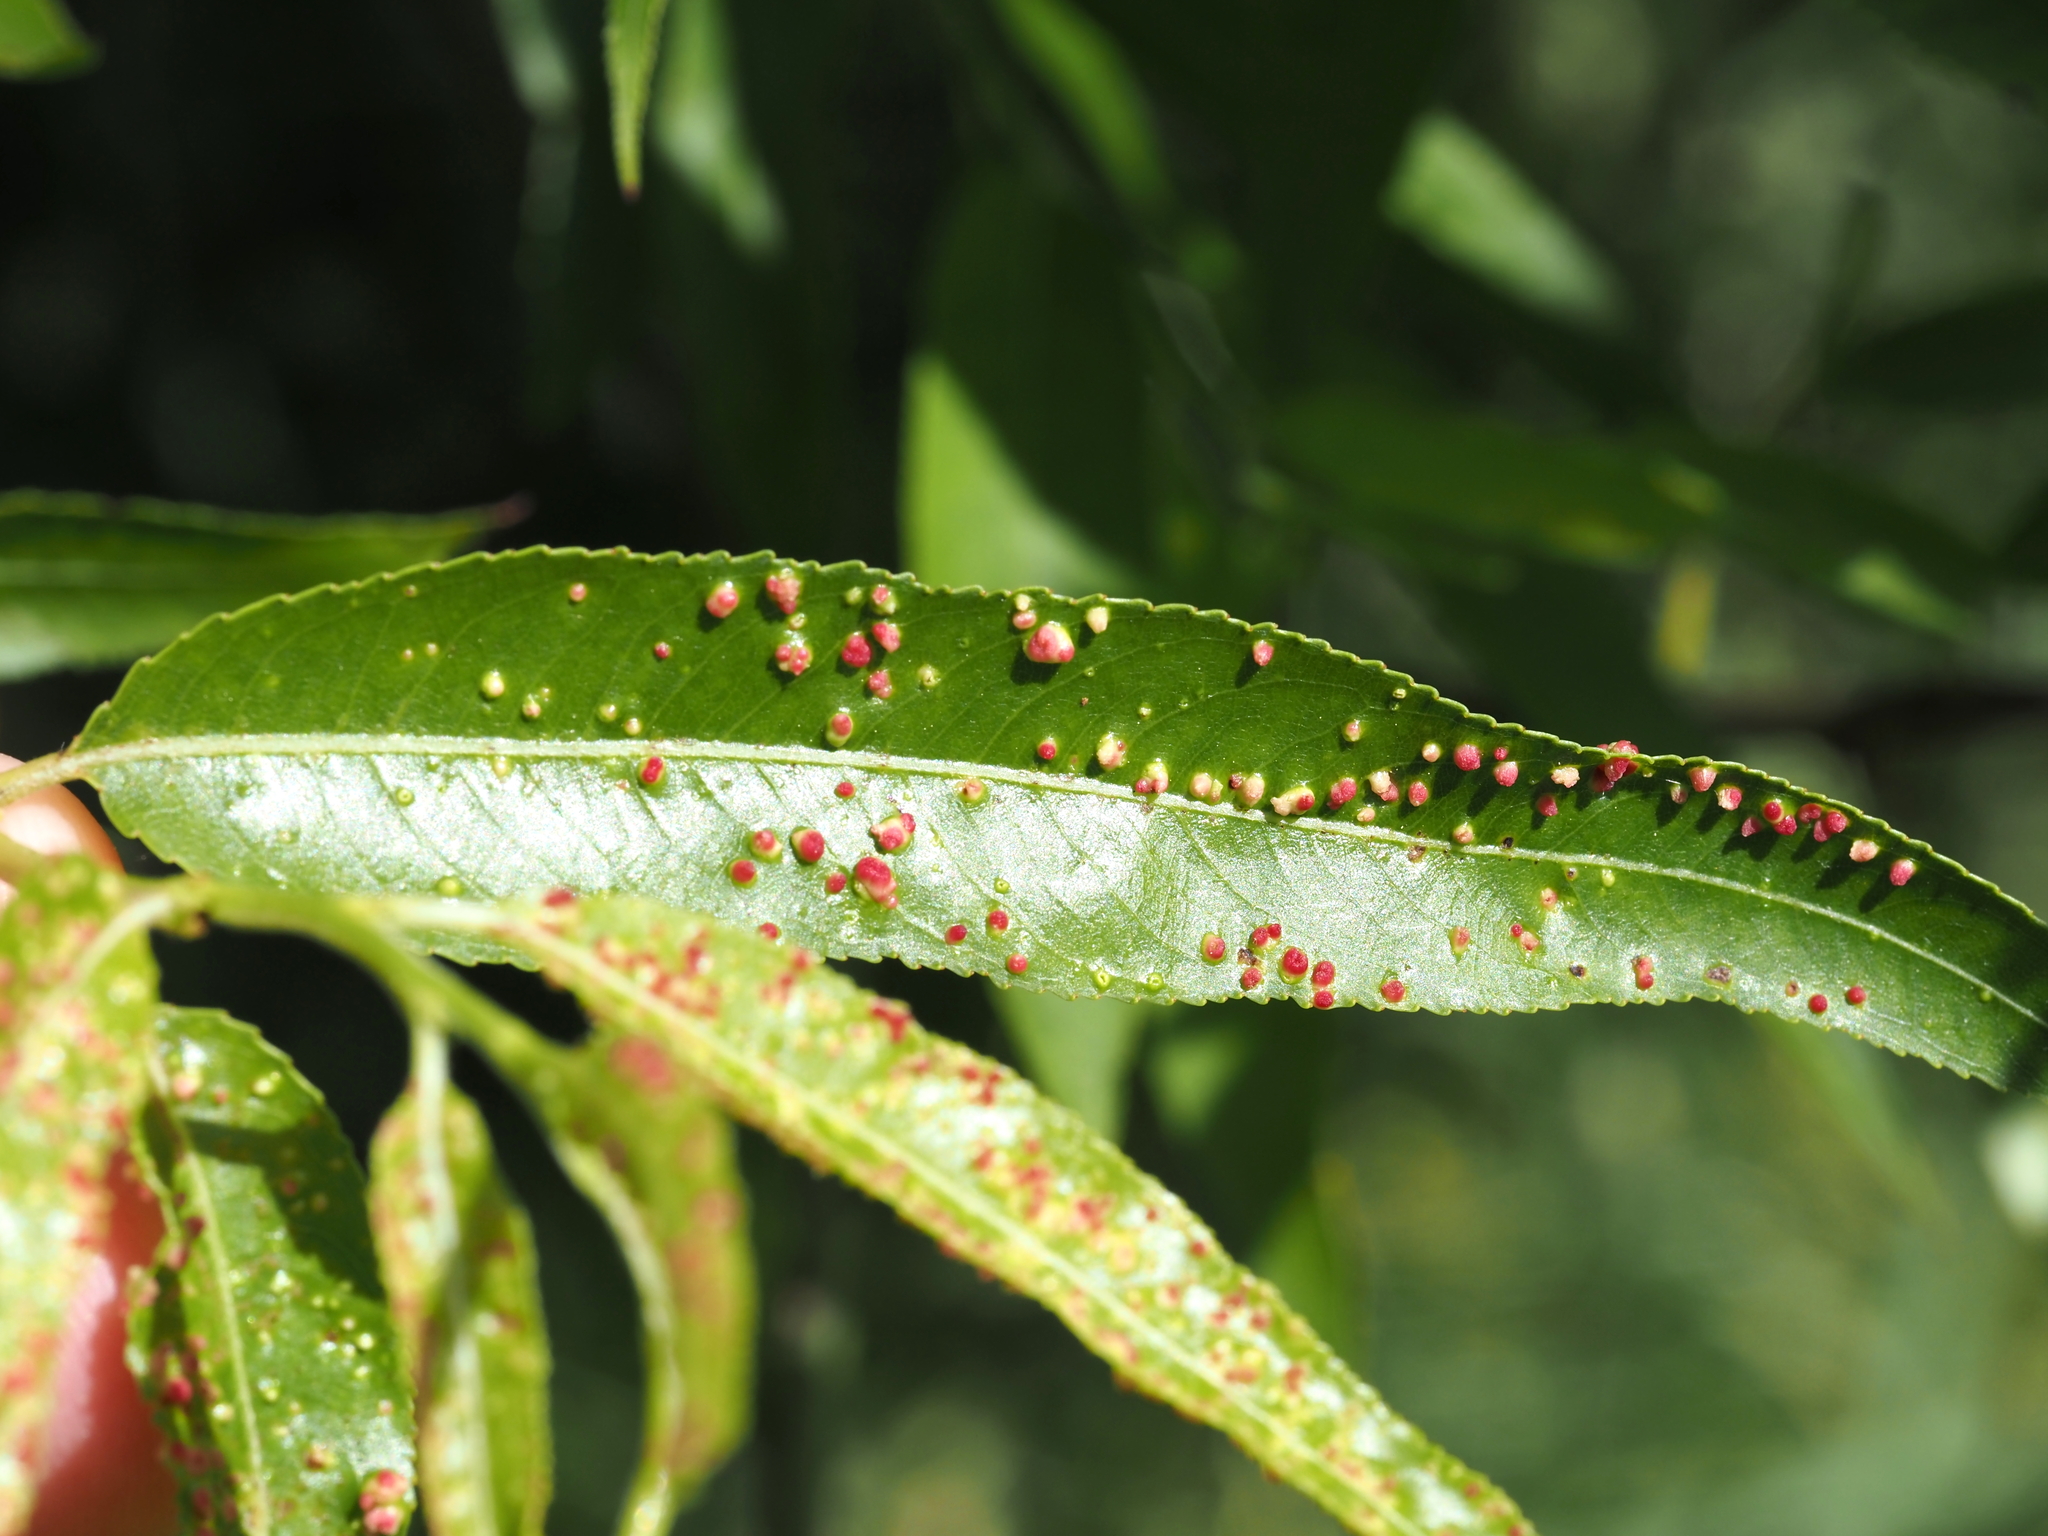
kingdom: Animalia
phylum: Arthropoda
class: Arachnida
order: Trombidiformes
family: Eriophyidae
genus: Aculus
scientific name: Aculus tetanothrix
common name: Willow bead gall mite
